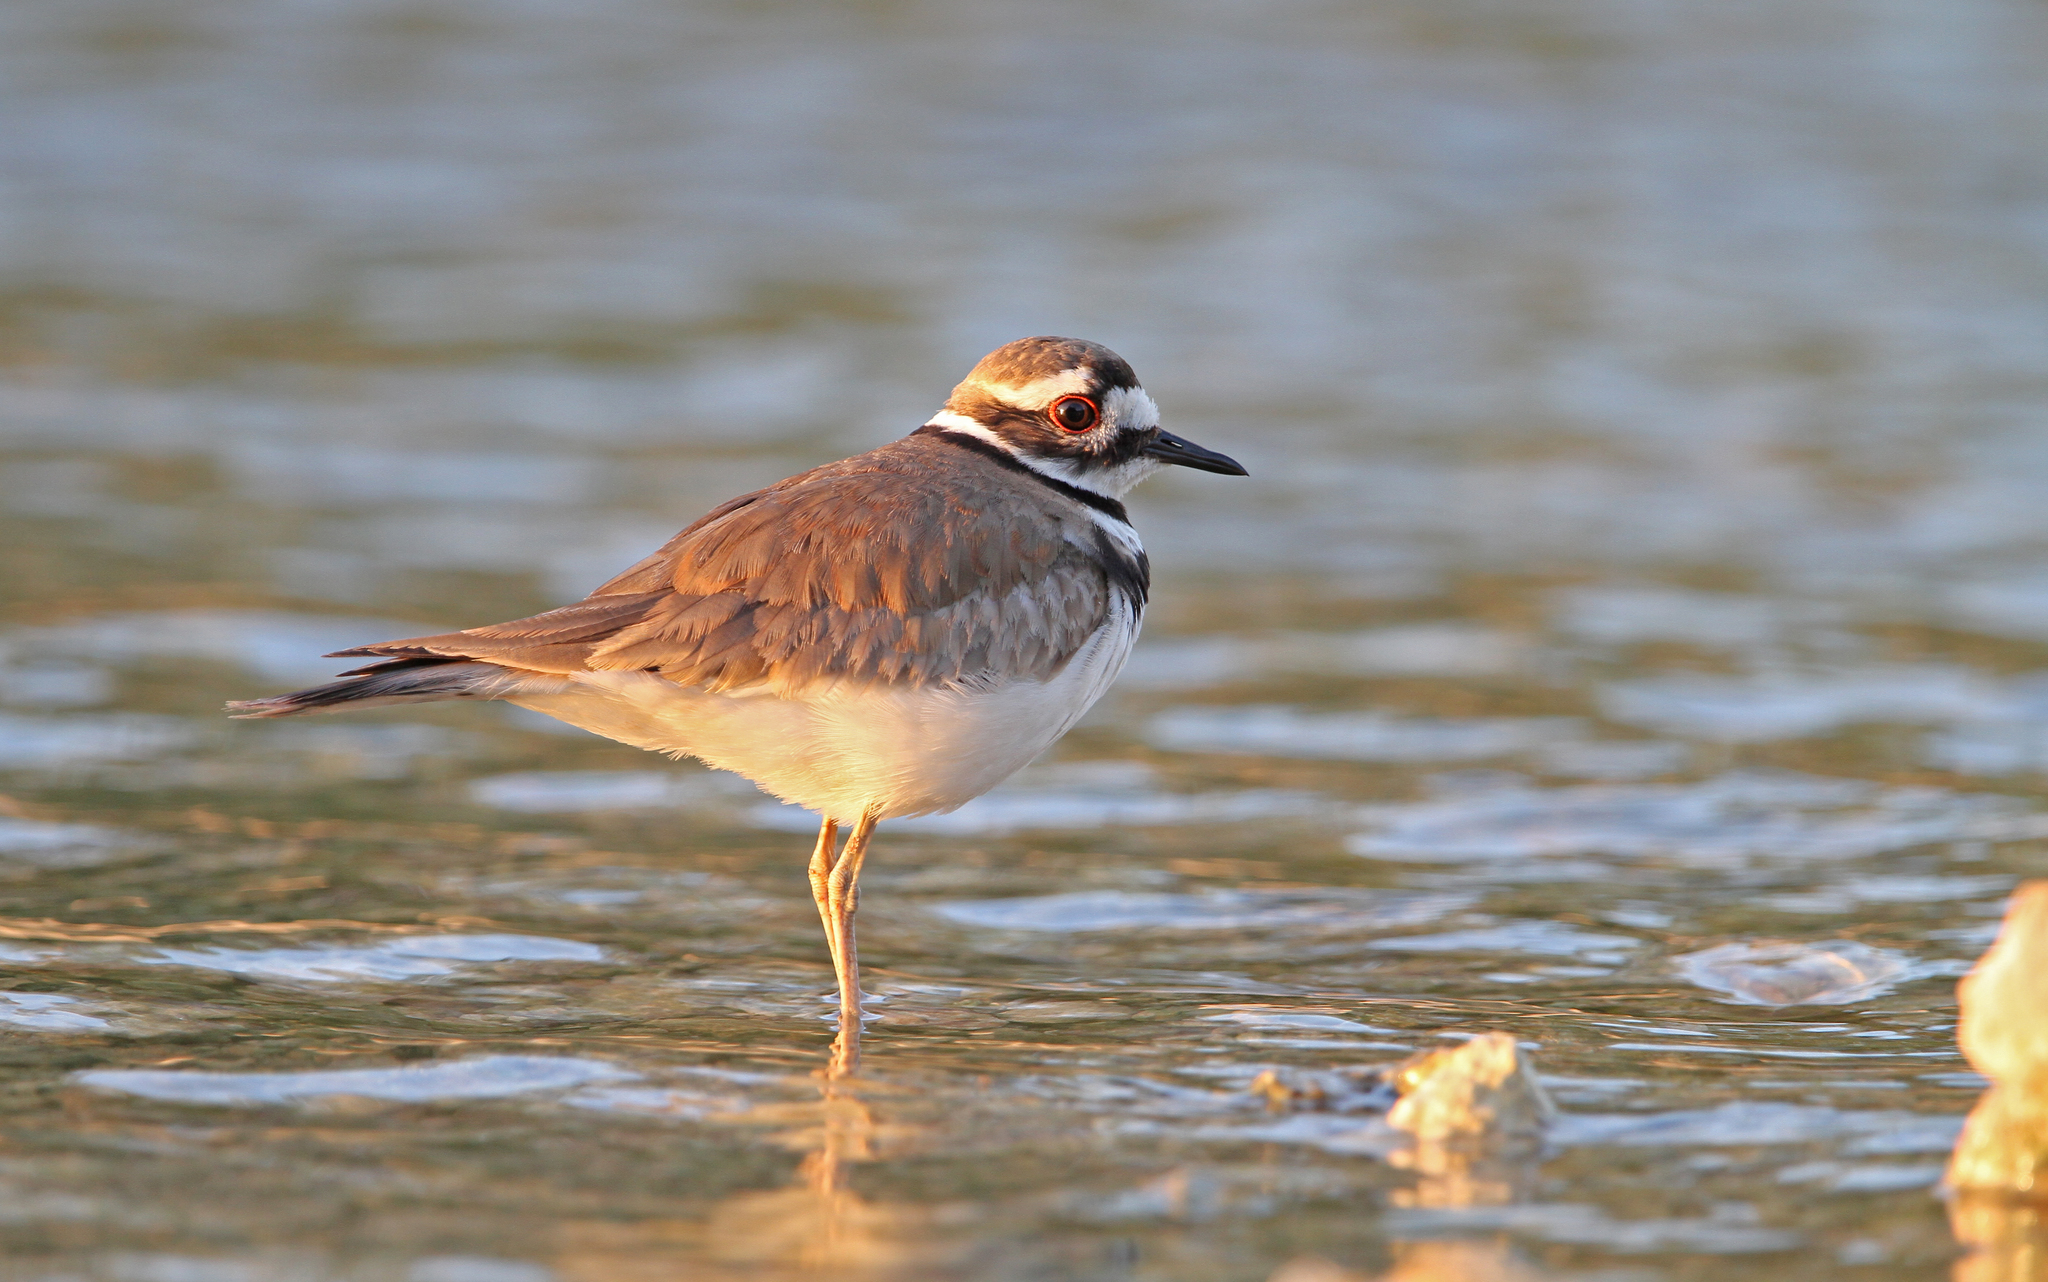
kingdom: Animalia
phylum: Chordata
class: Aves
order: Charadriiformes
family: Charadriidae
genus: Charadrius
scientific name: Charadrius vociferus
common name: Killdeer
